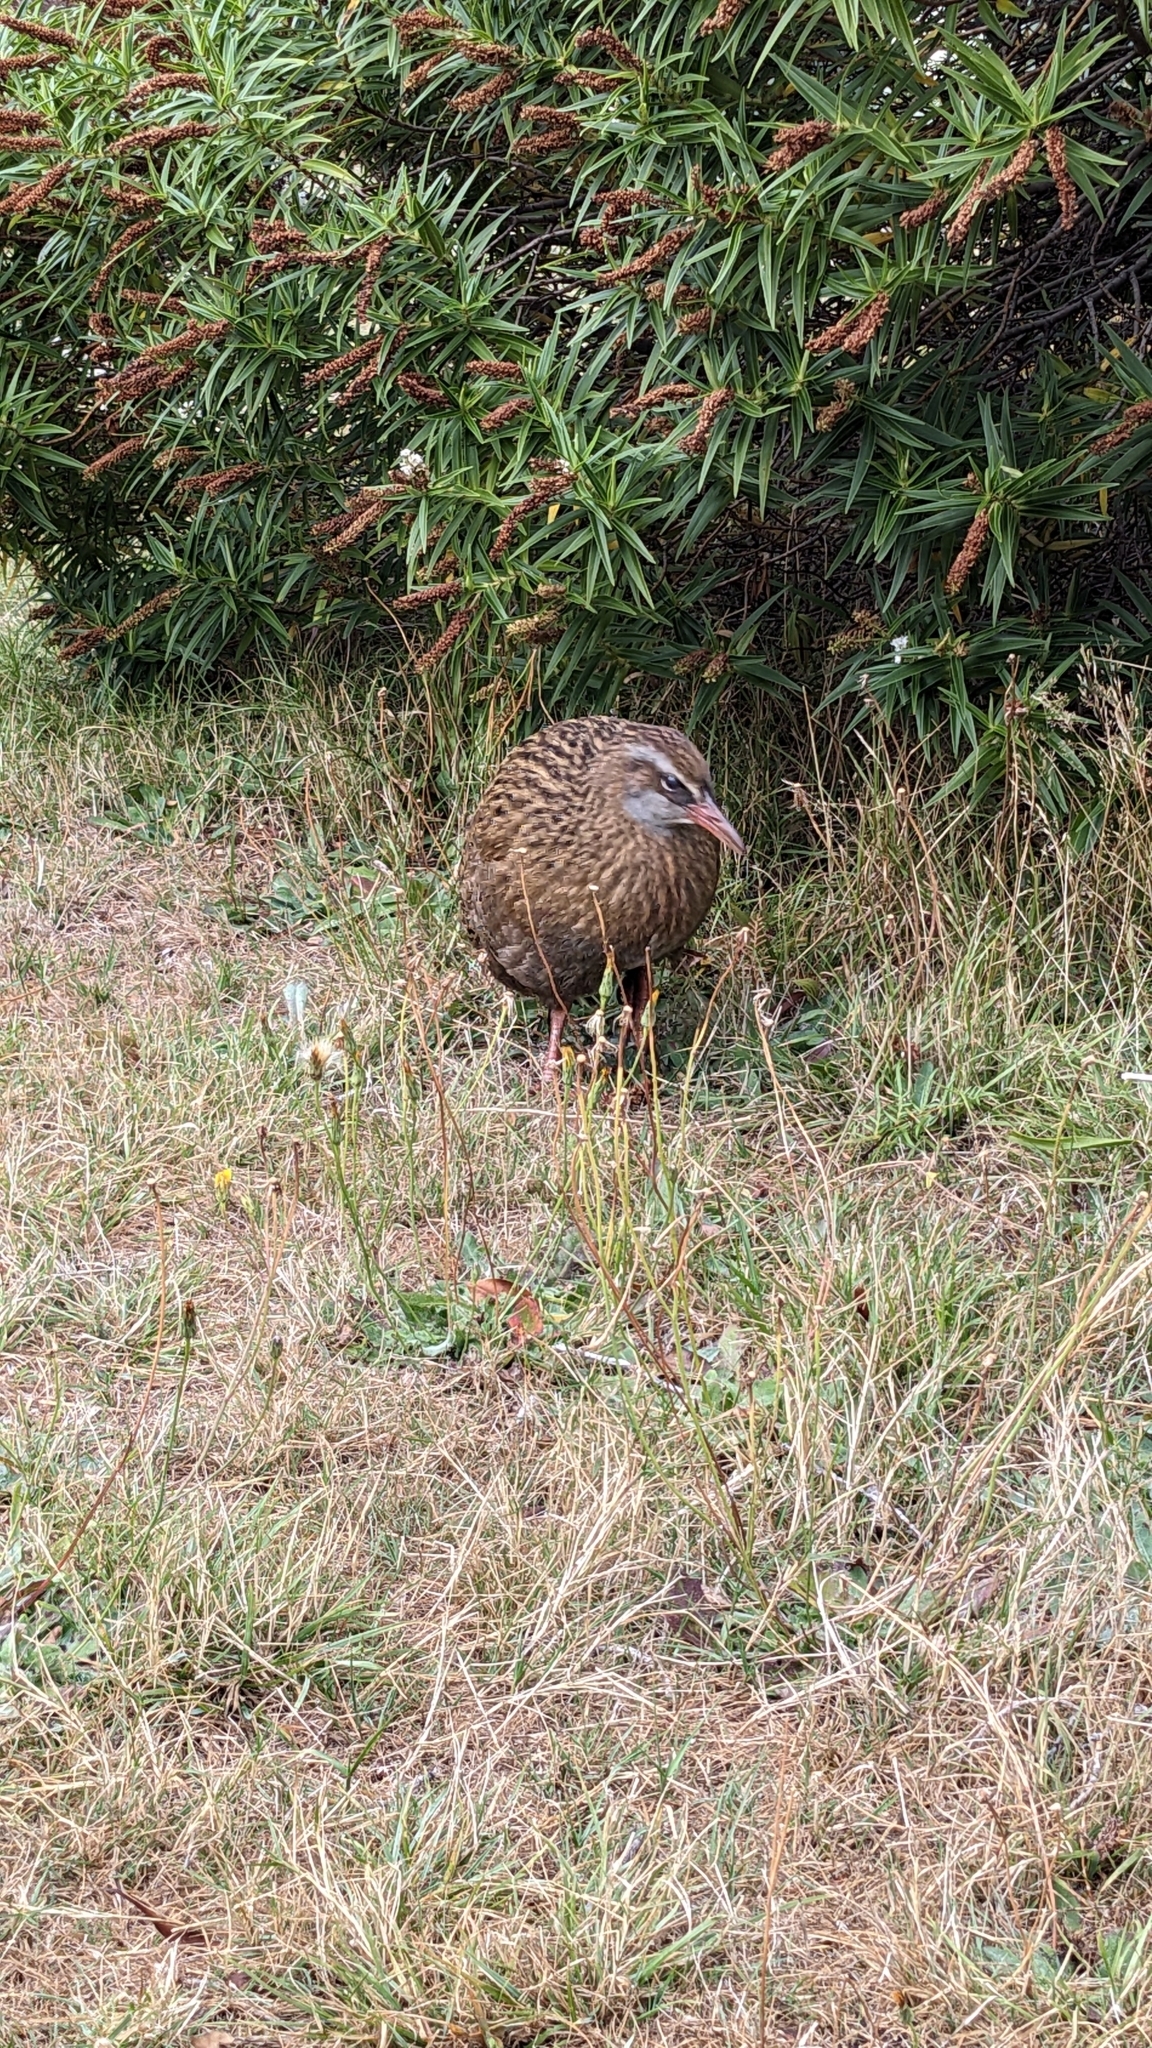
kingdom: Animalia
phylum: Chordata
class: Aves
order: Gruiformes
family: Rallidae
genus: Gallirallus
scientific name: Gallirallus australis
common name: Weka
